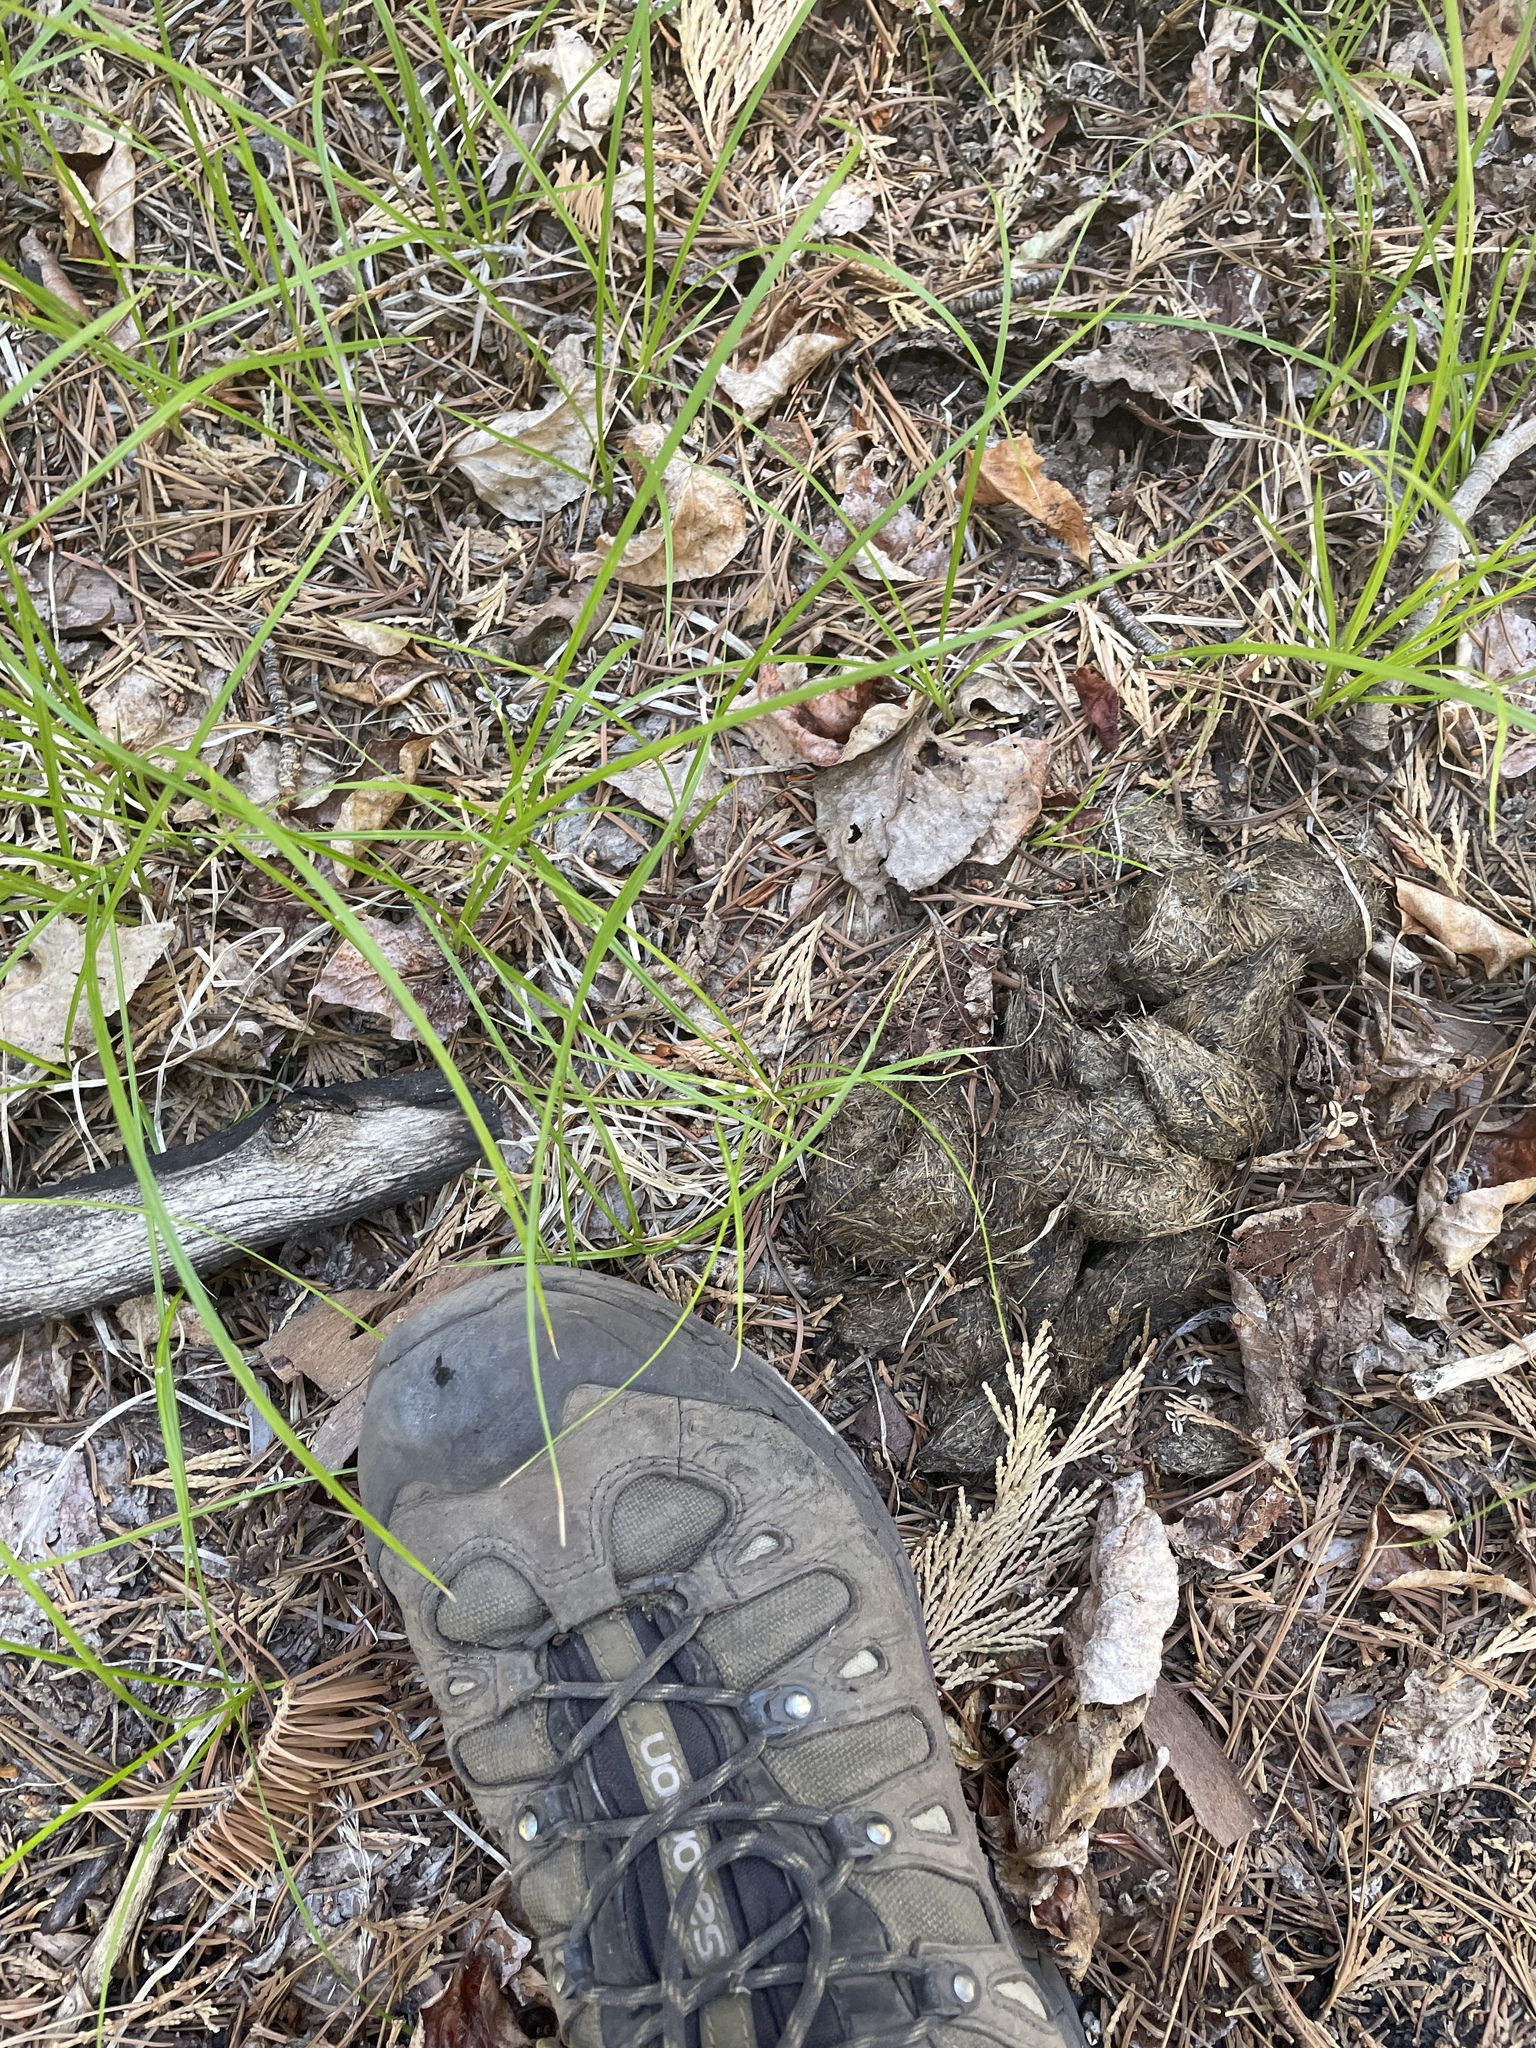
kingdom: Animalia
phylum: Chordata
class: Mammalia
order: Carnivora
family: Ursidae
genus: Ursus
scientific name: Ursus americanus
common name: American black bear
